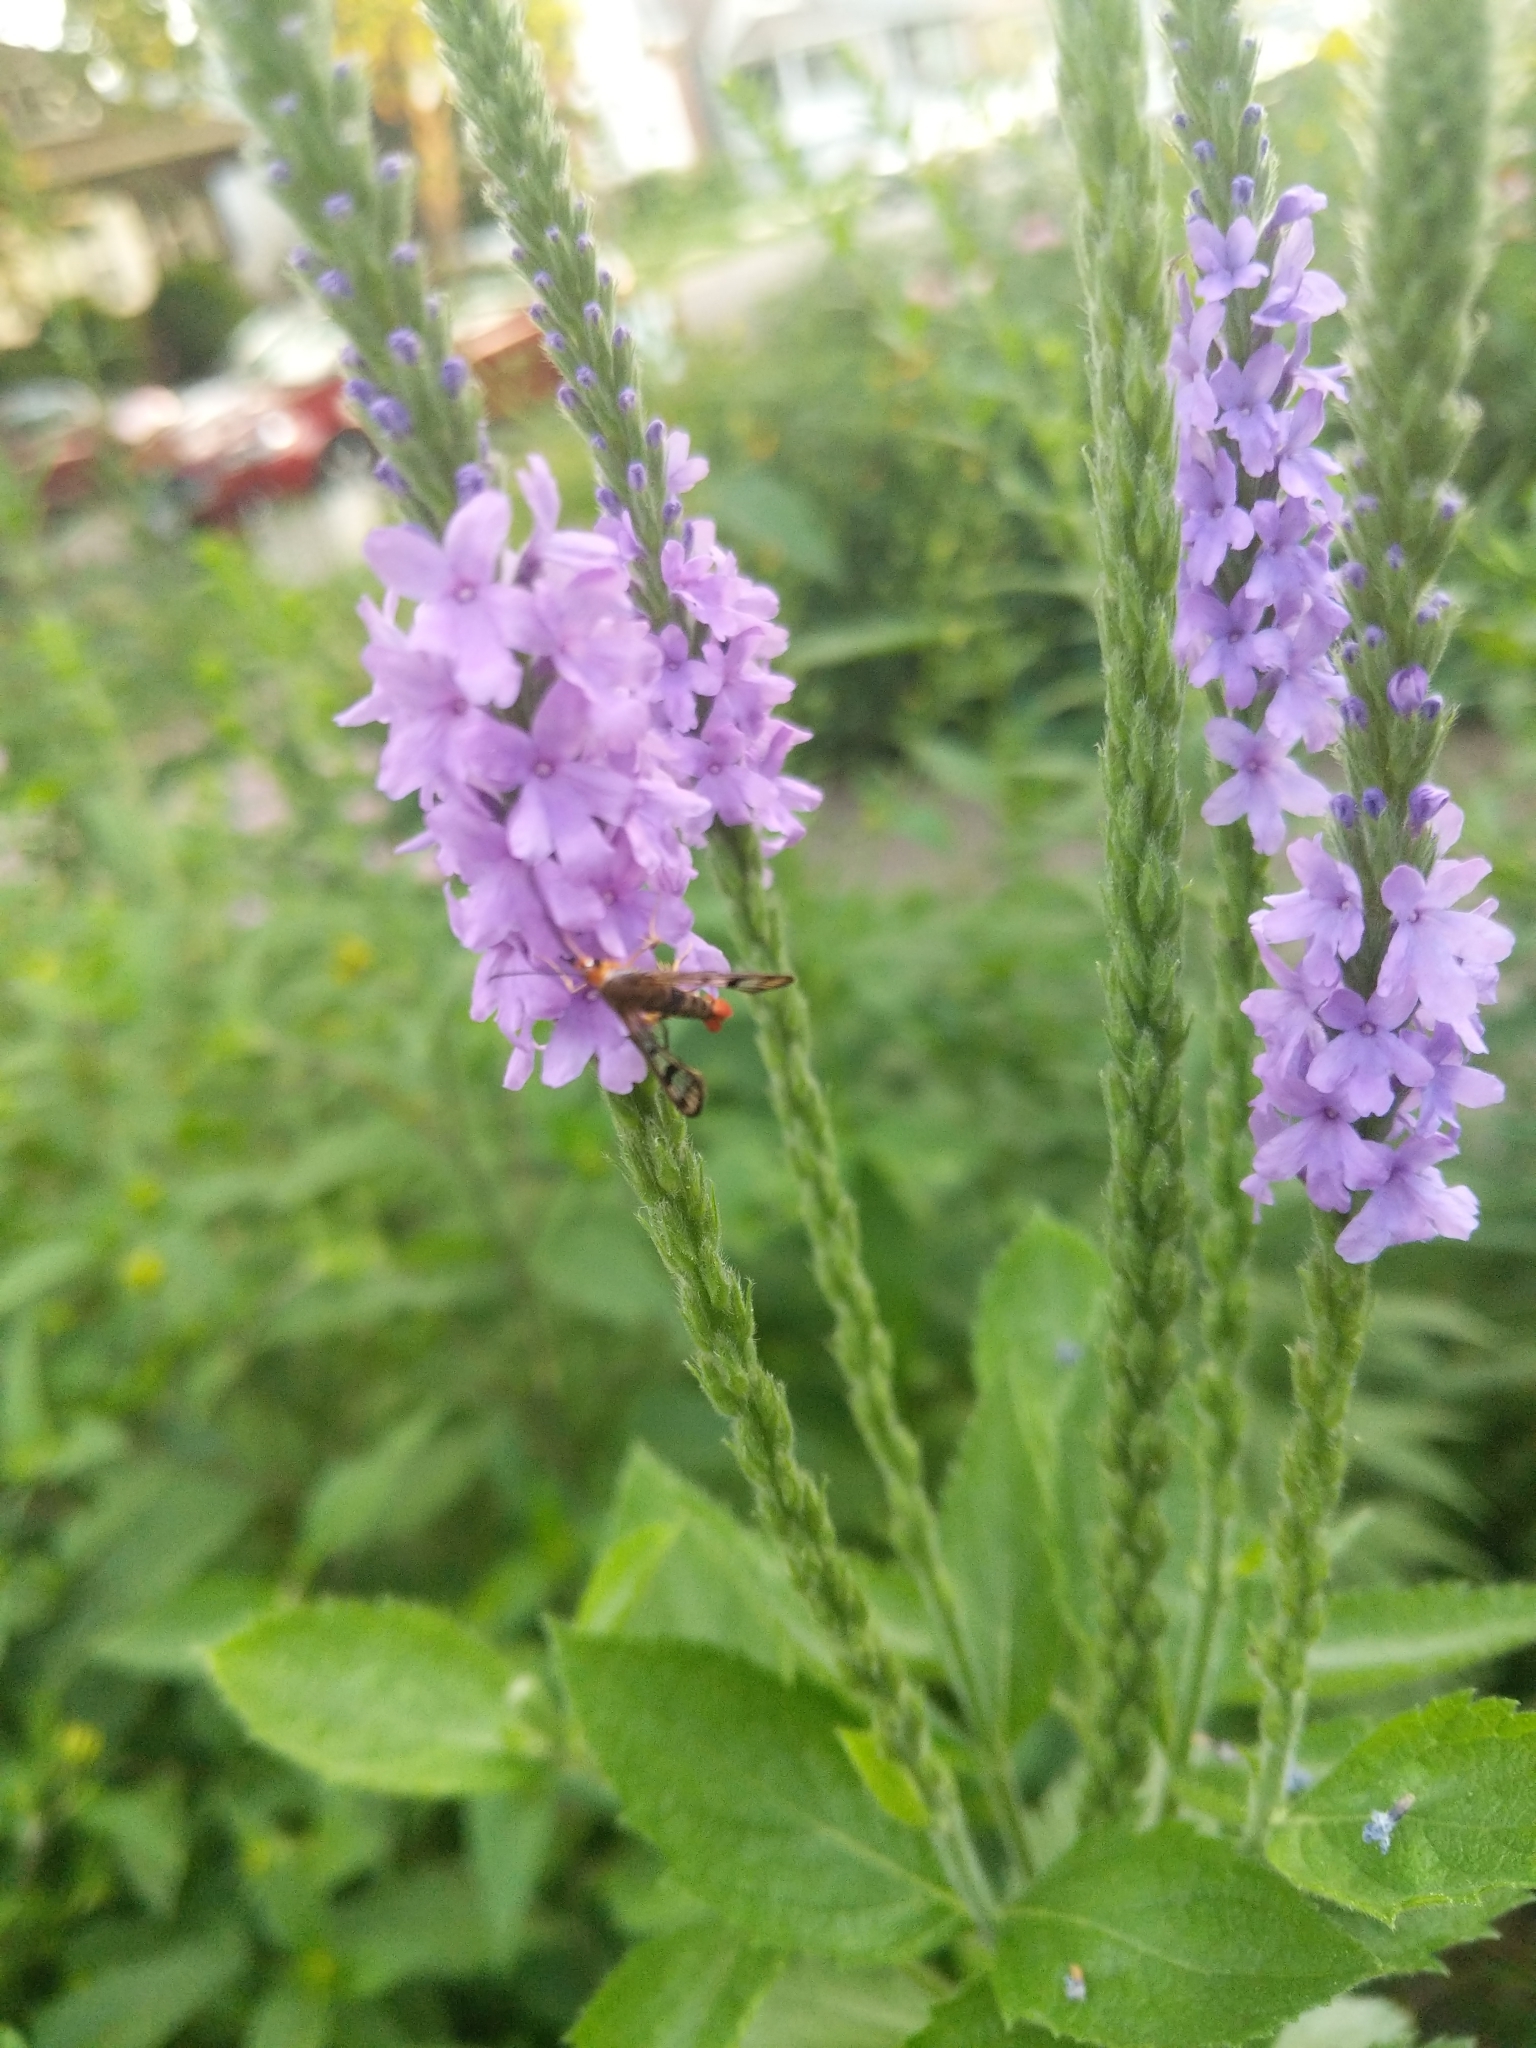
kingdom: Animalia
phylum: Arthropoda
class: Insecta
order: Lepidoptera
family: Sesiidae
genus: Synanthedon
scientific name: Synanthedon acerni
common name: Maple callus borer moth
